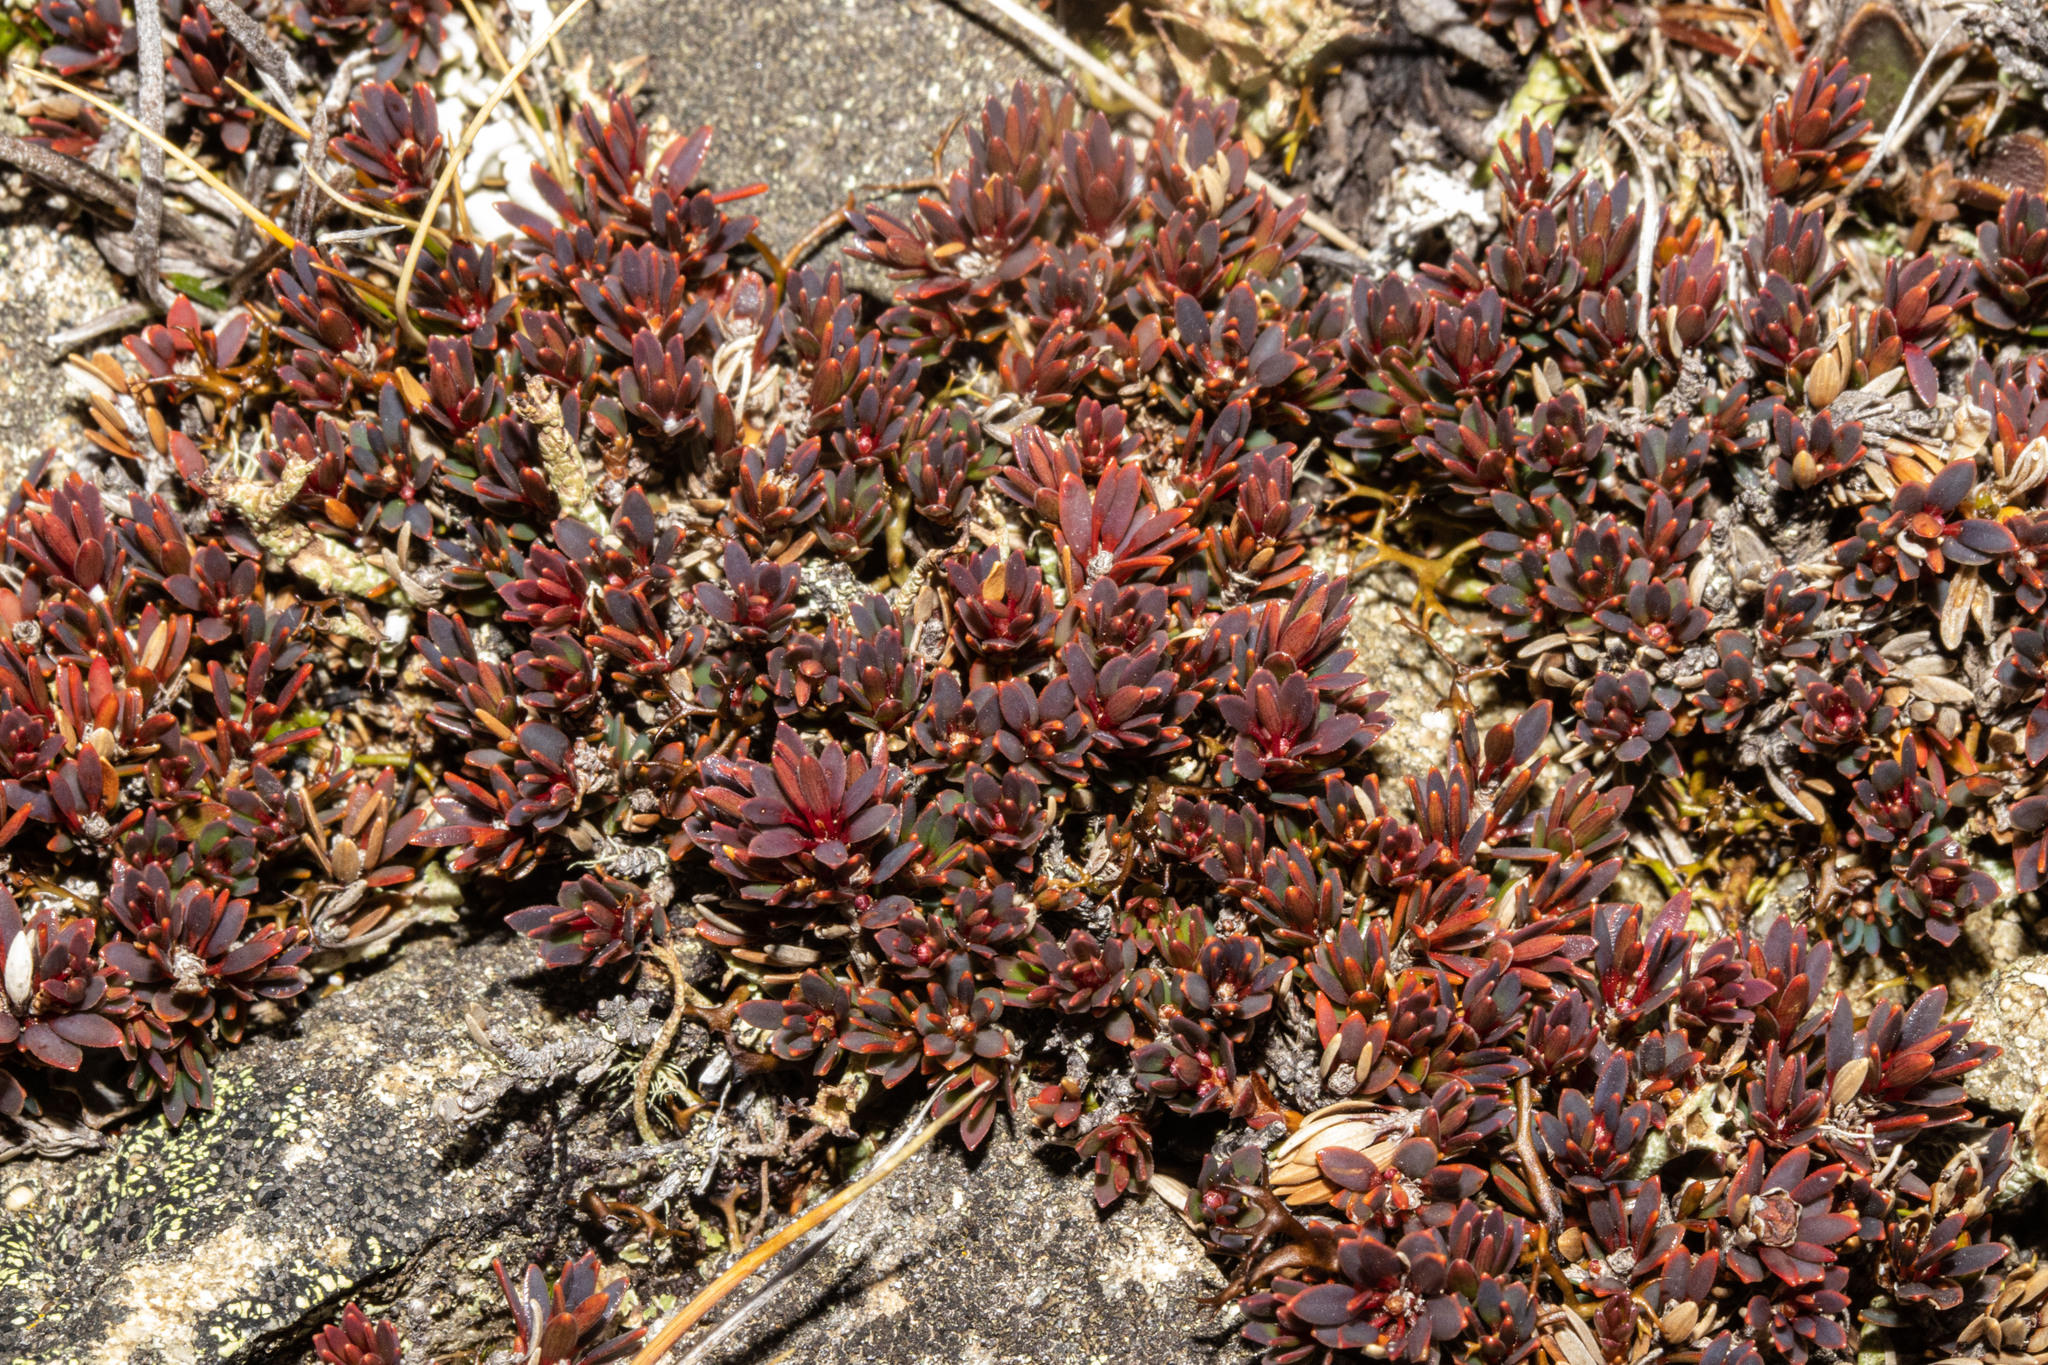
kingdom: Plantae
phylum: Tracheophyta
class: Magnoliopsida
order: Ericales
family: Ericaceae
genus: Pentachondra
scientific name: Pentachondra pumila
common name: Carpet-heath
